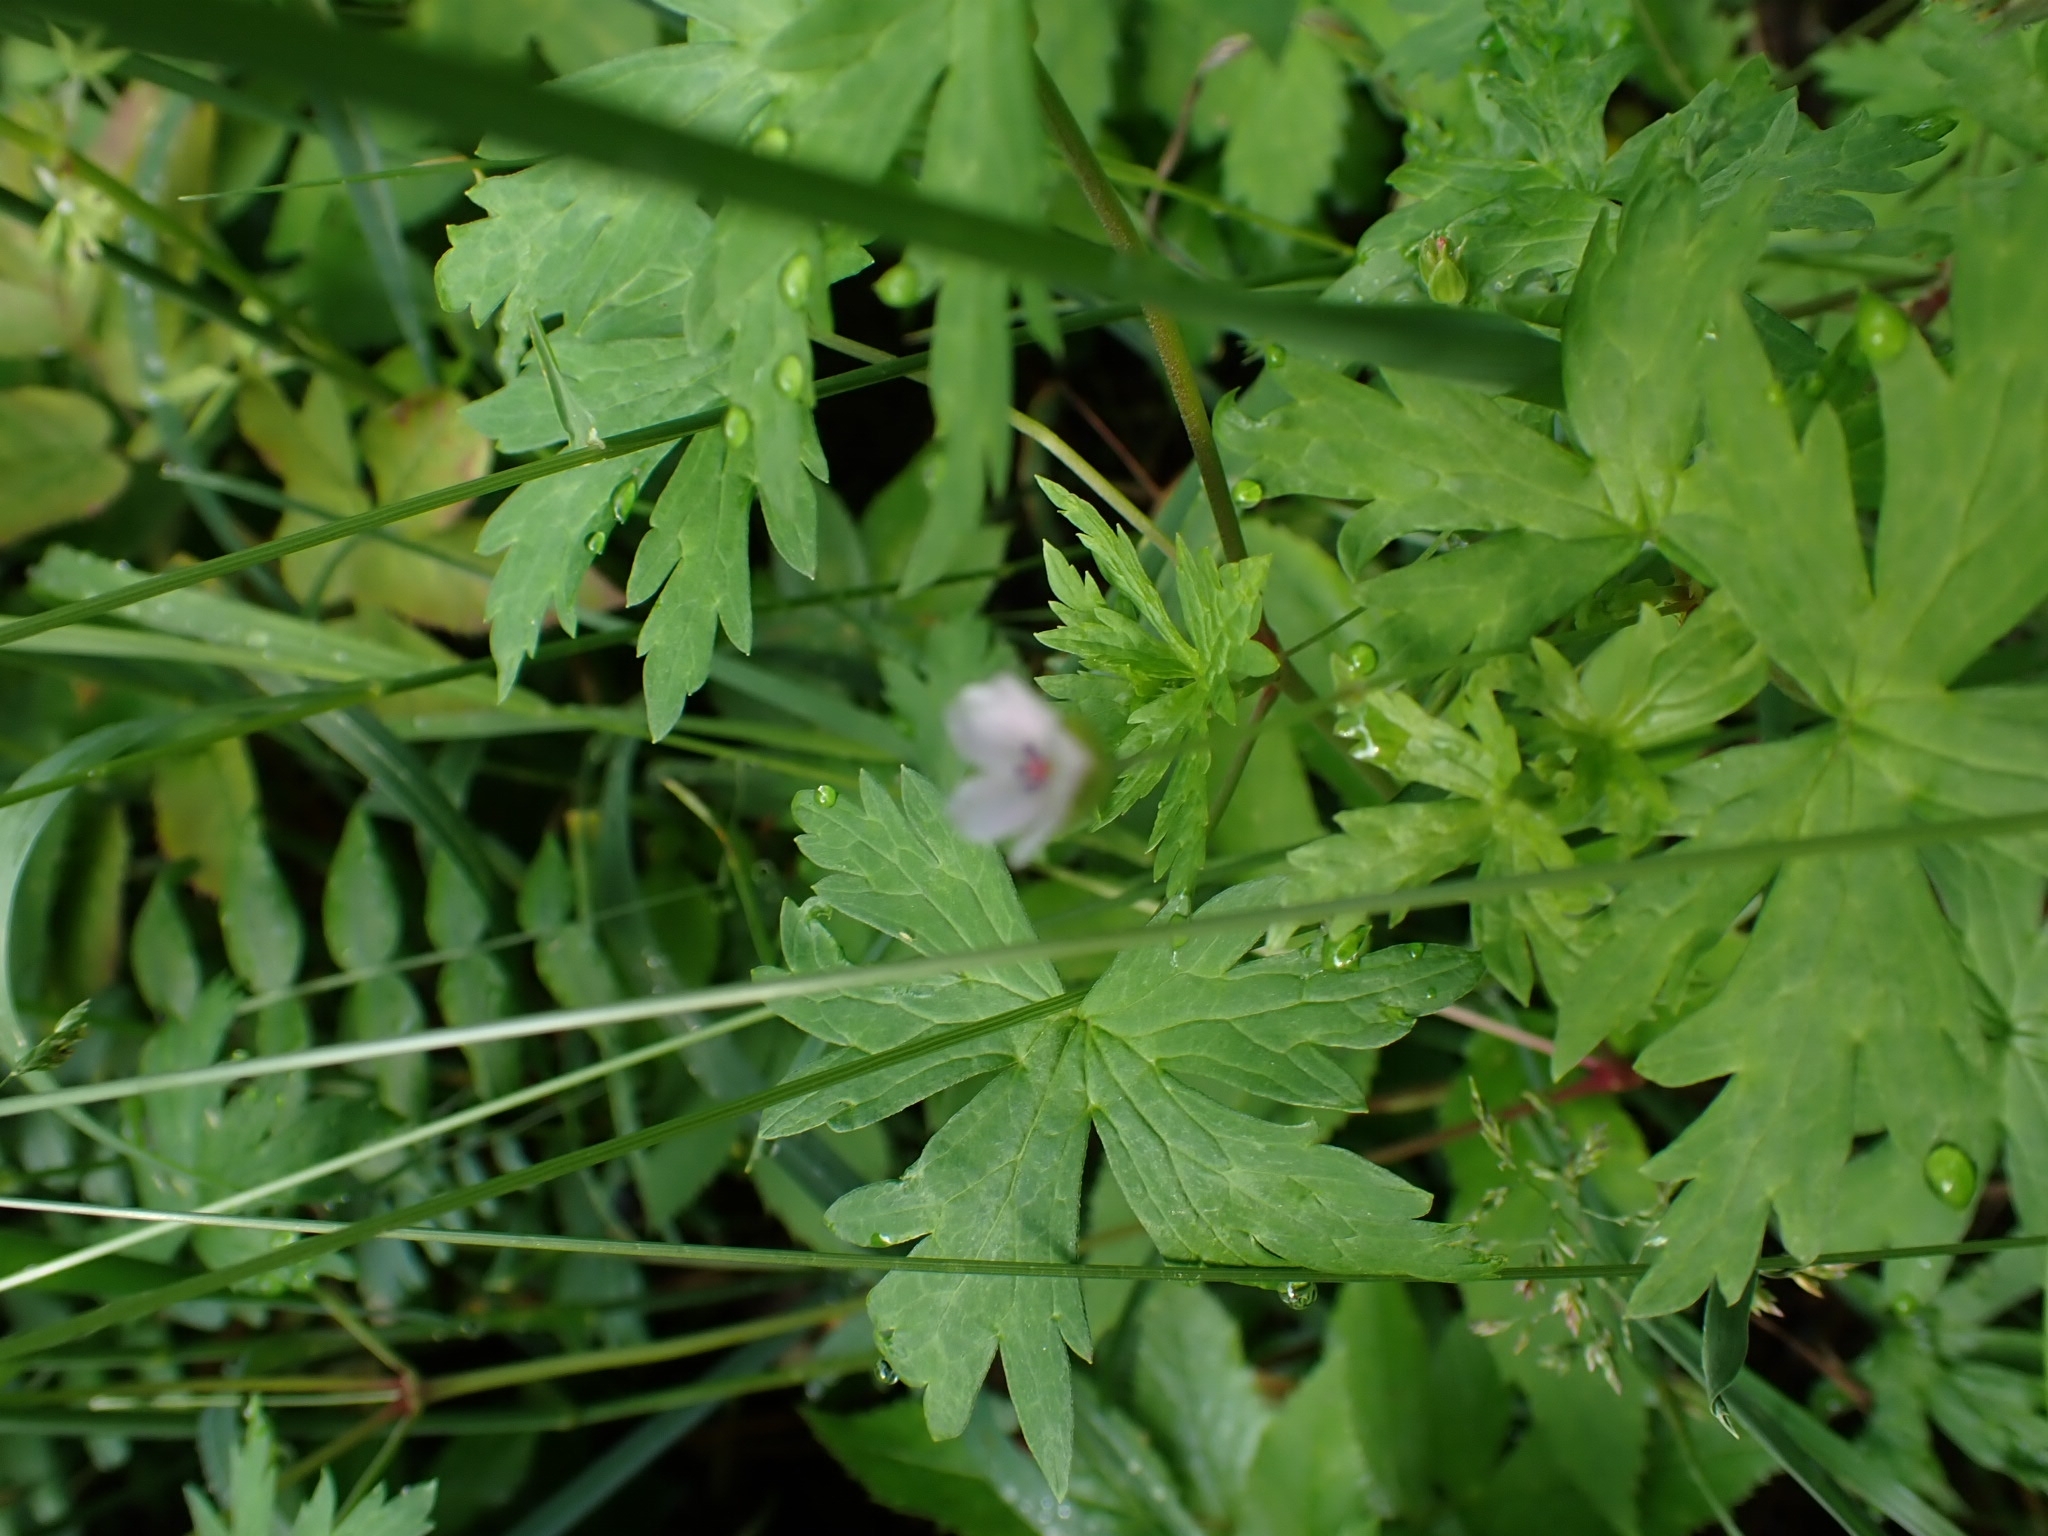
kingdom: Plantae
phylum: Tracheophyta
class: Magnoliopsida
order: Geraniales
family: Geraniaceae
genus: Geranium
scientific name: Geranium sibiricum
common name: Siberian crane's-bill
